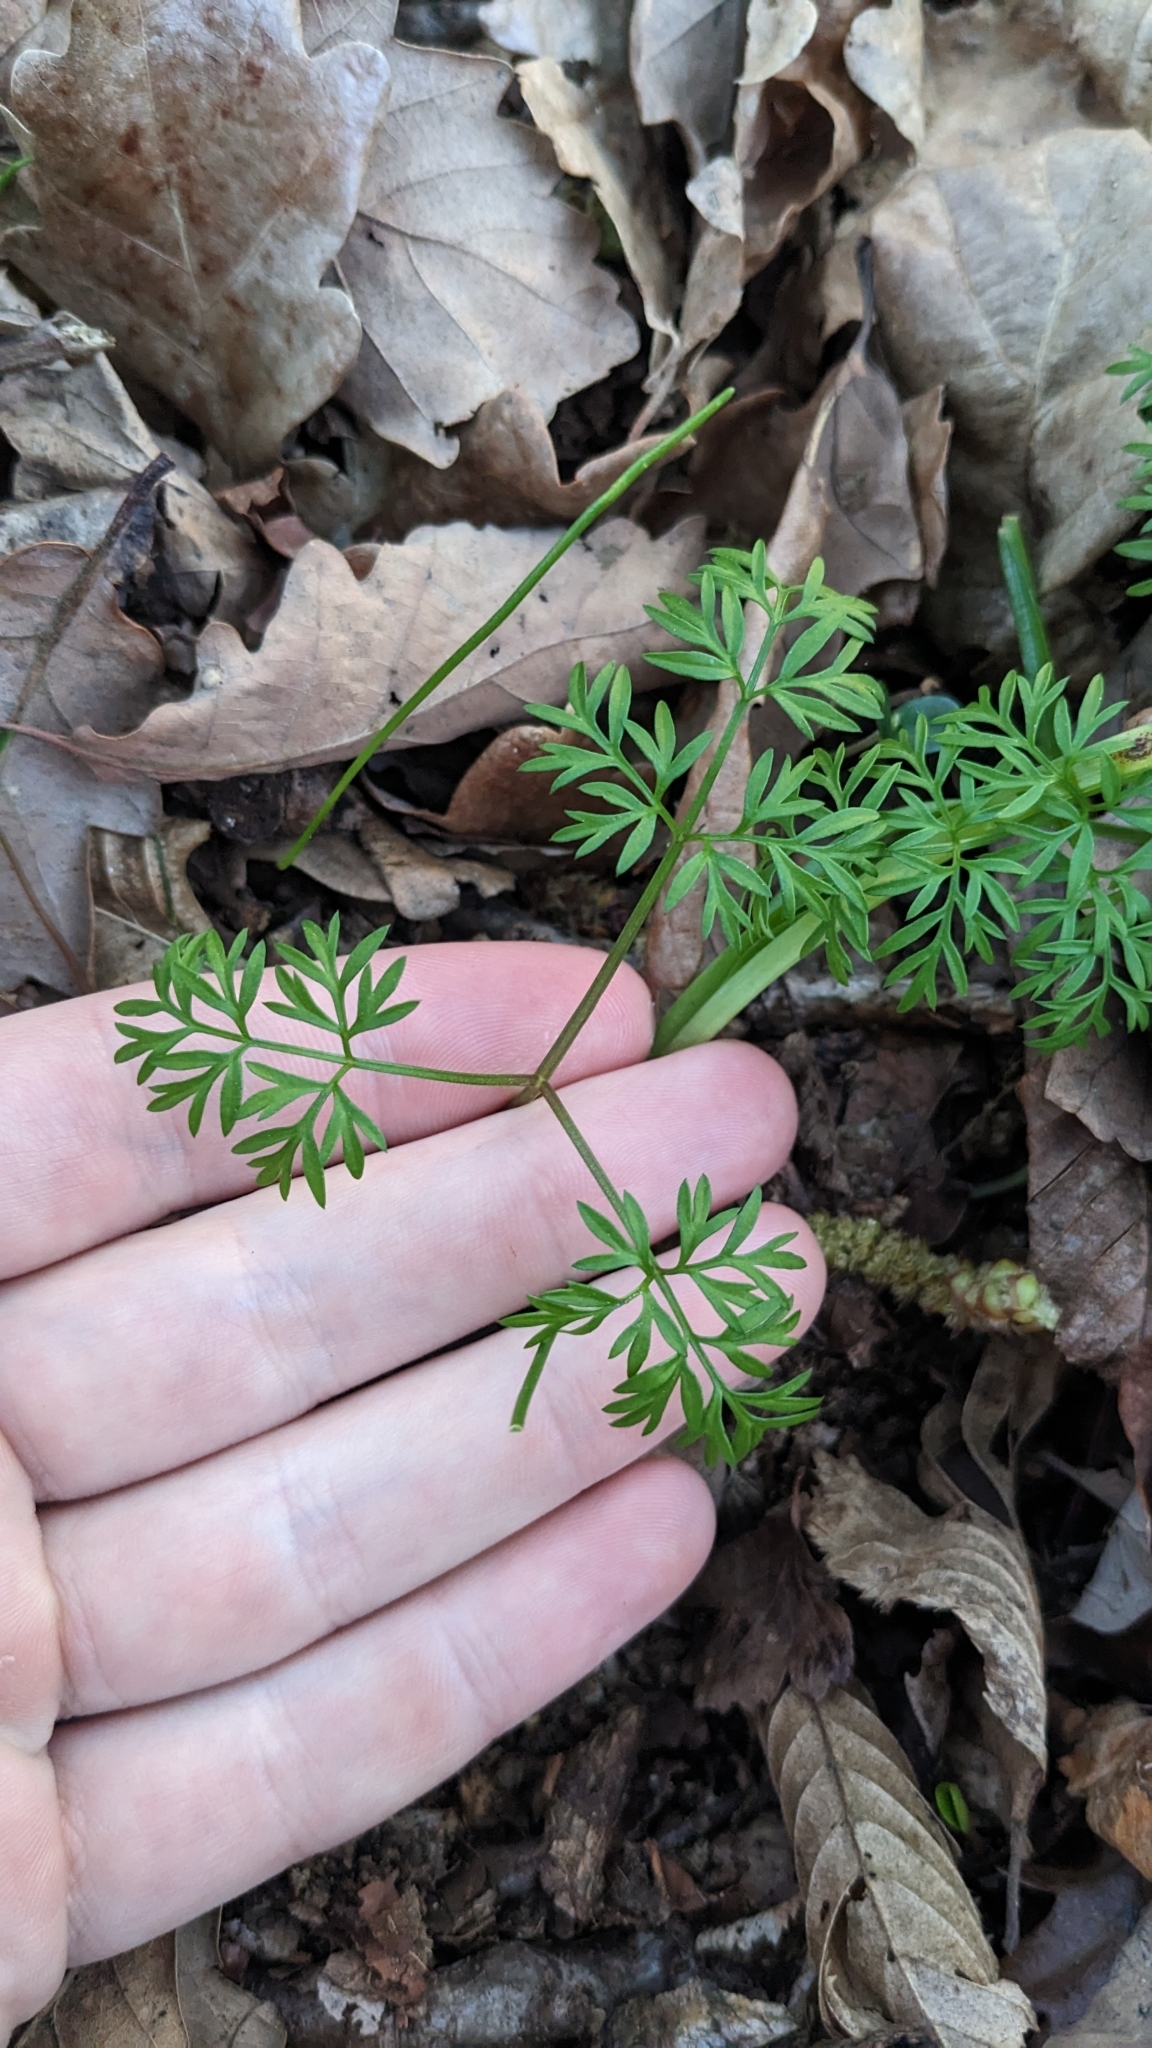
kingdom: Plantae
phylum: Tracheophyta
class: Magnoliopsida
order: Apiales
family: Apiaceae
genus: Conopodium
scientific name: Conopodium majus
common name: Pignut
